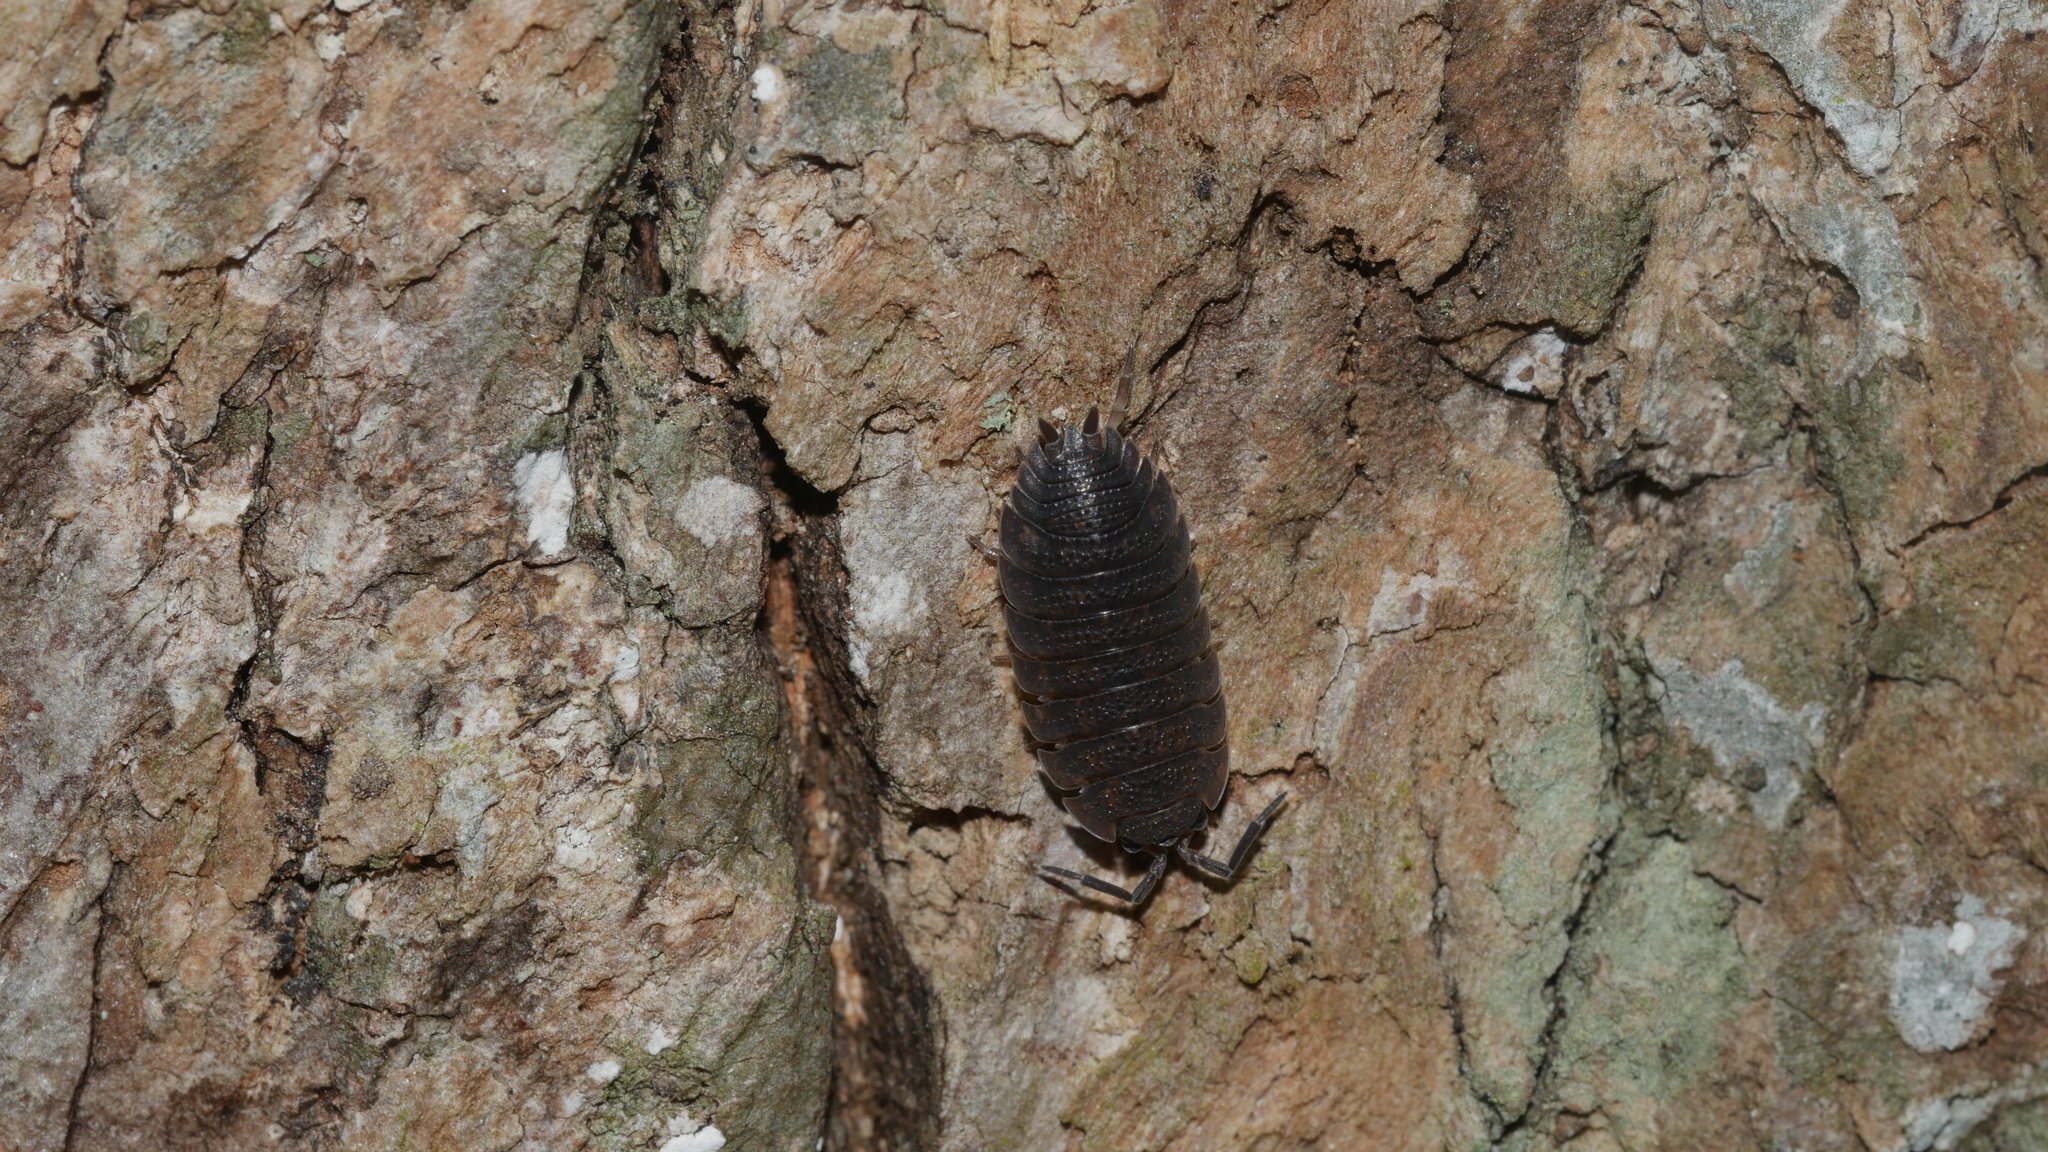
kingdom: Animalia
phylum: Arthropoda
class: Malacostraca
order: Isopoda
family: Porcellionidae
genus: Porcellio
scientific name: Porcellio scaber
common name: Common rough woodlouse
